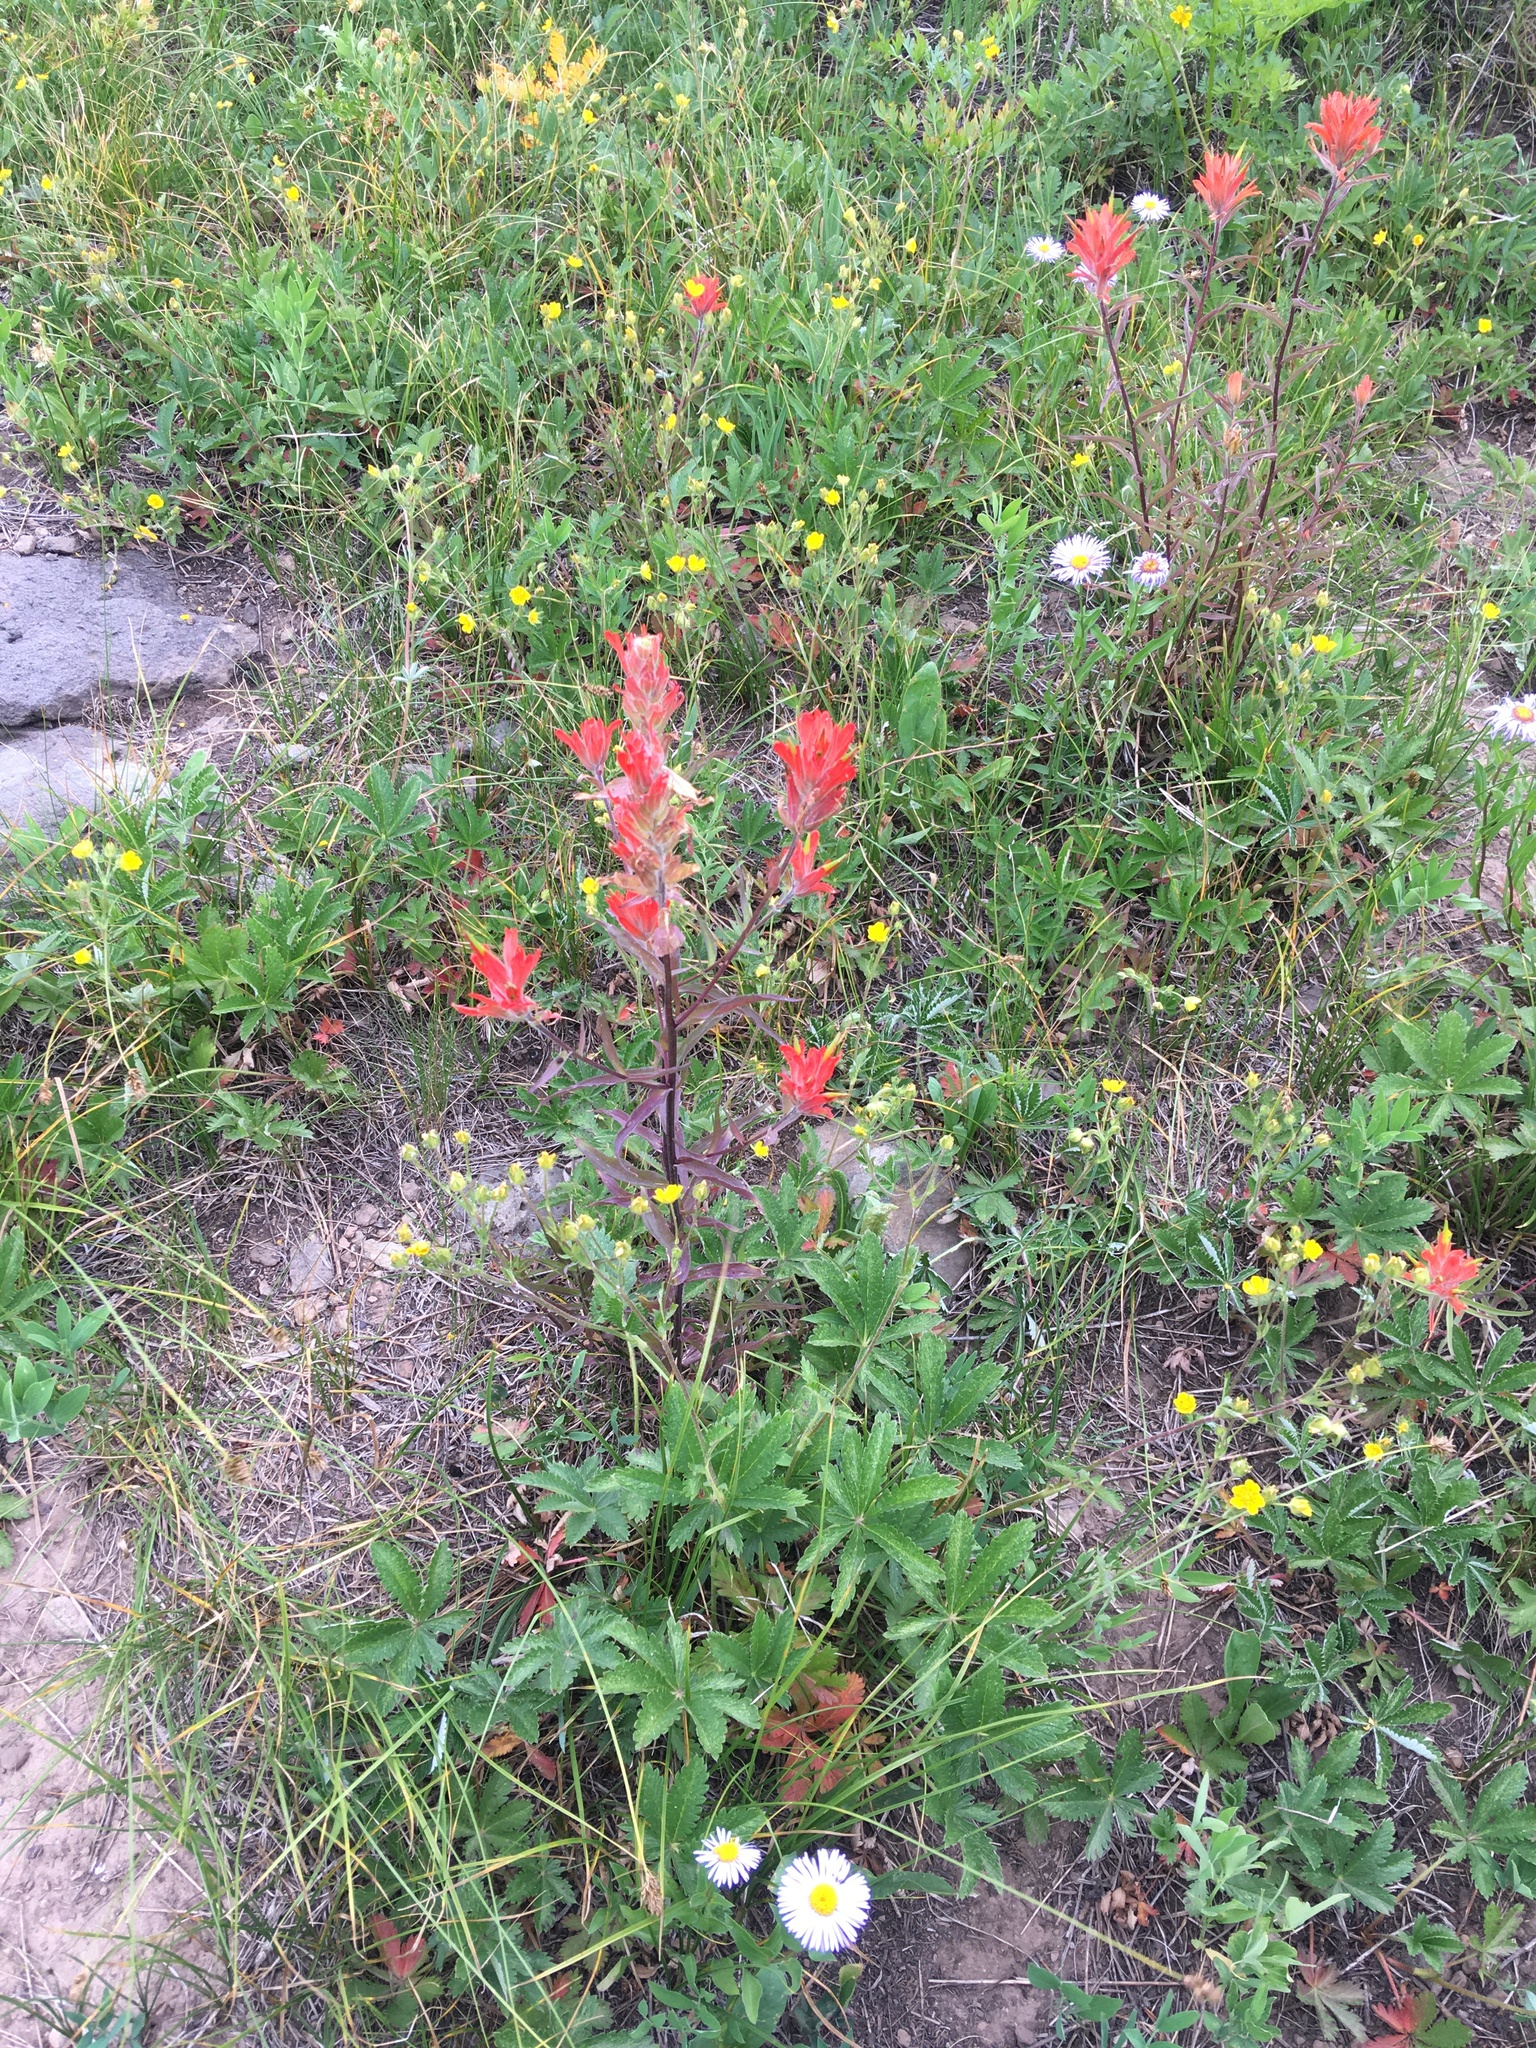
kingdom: Plantae
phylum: Tracheophyta
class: Magnoliopsida
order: Lamiales
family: Orobanchaceae
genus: Castilleja
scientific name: Castilleja miniata
